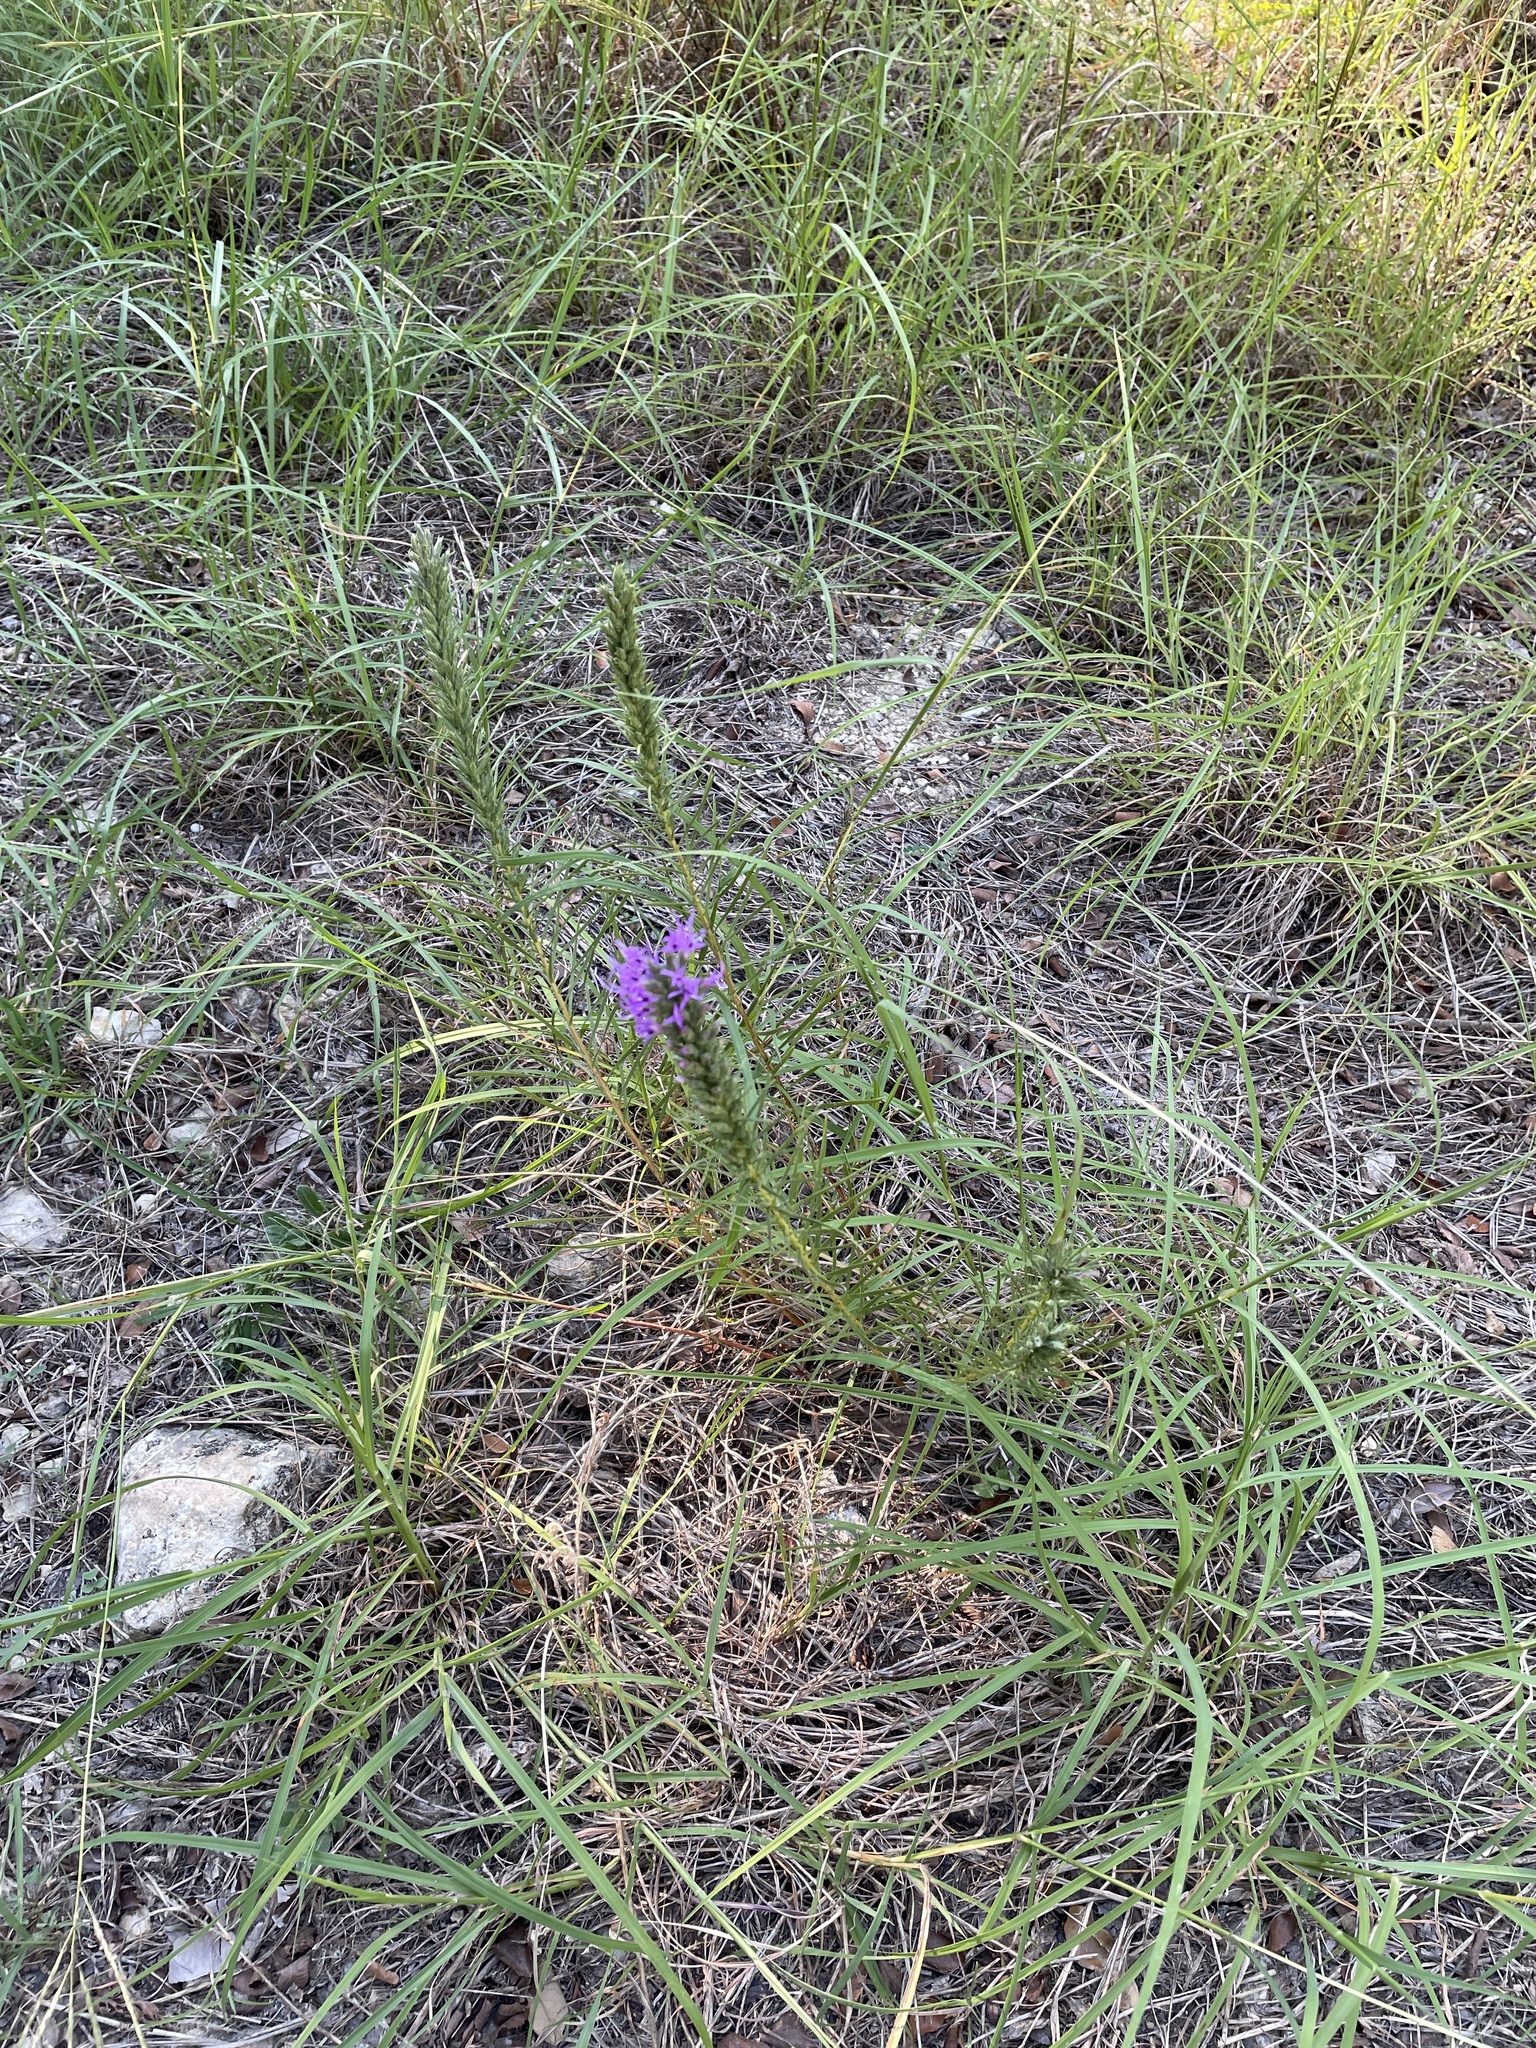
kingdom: Plantae
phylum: Tracheophyta
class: Magnoliopsida
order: Asterales
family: Asteraceae
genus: Liatris
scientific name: Liatris punctata
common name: Dotted gayfeather
